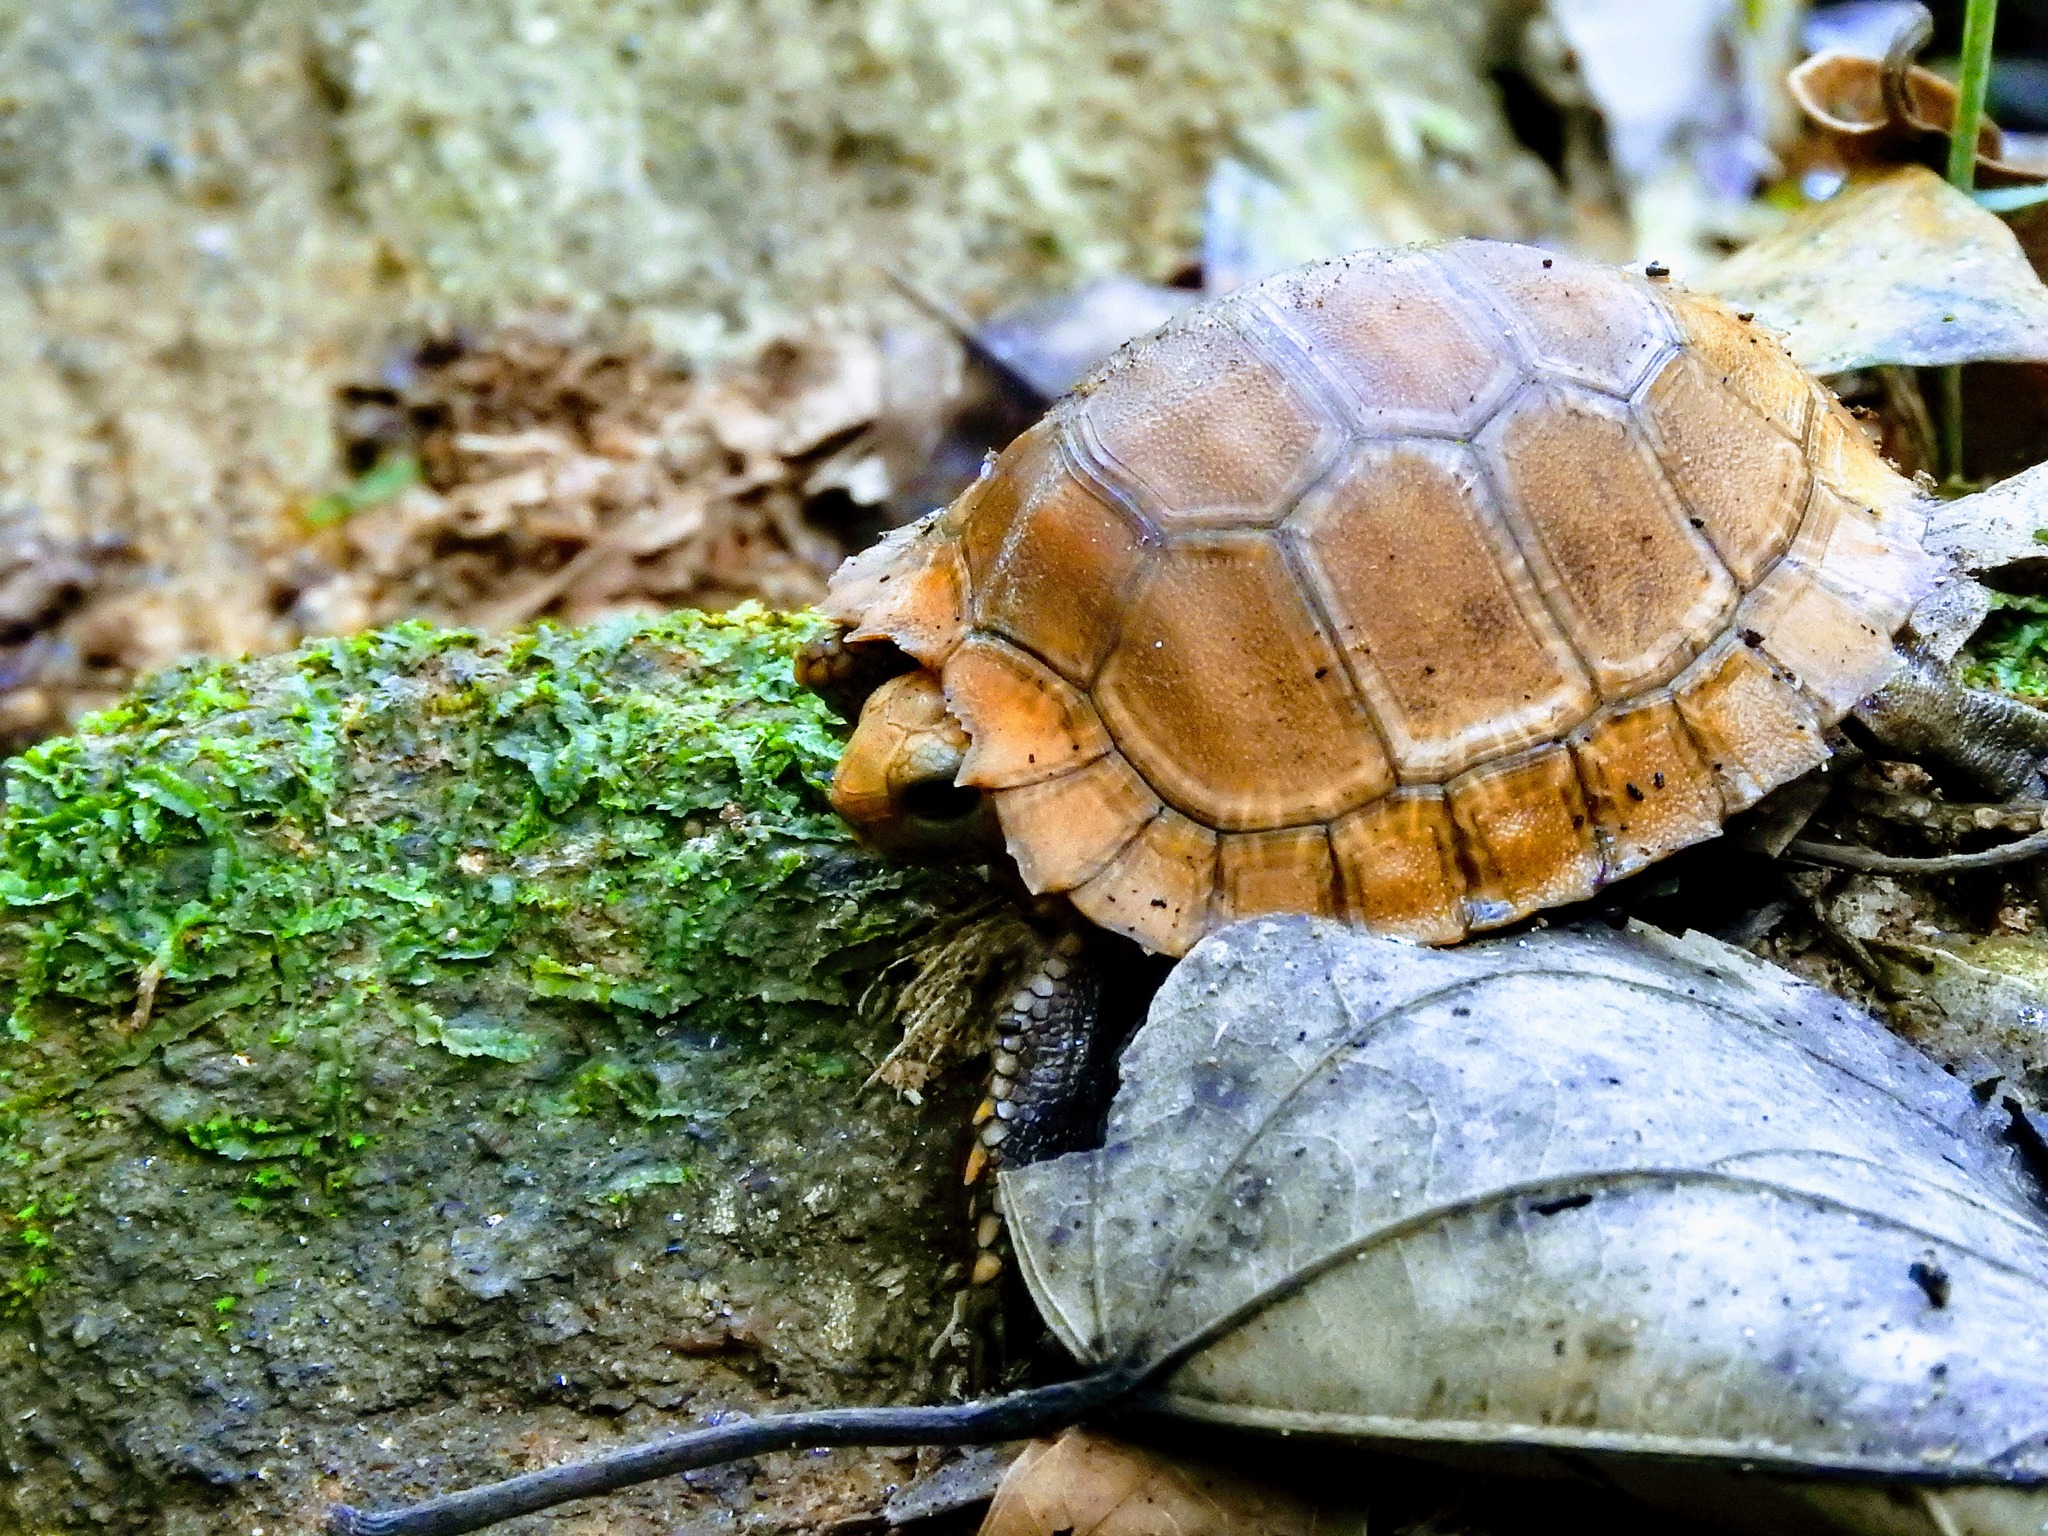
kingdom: Animalia
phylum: Chordata
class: Testudines
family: Testudinidae
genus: Indotestudo
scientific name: Indotestudo travancorica
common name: Travancore tortoise
